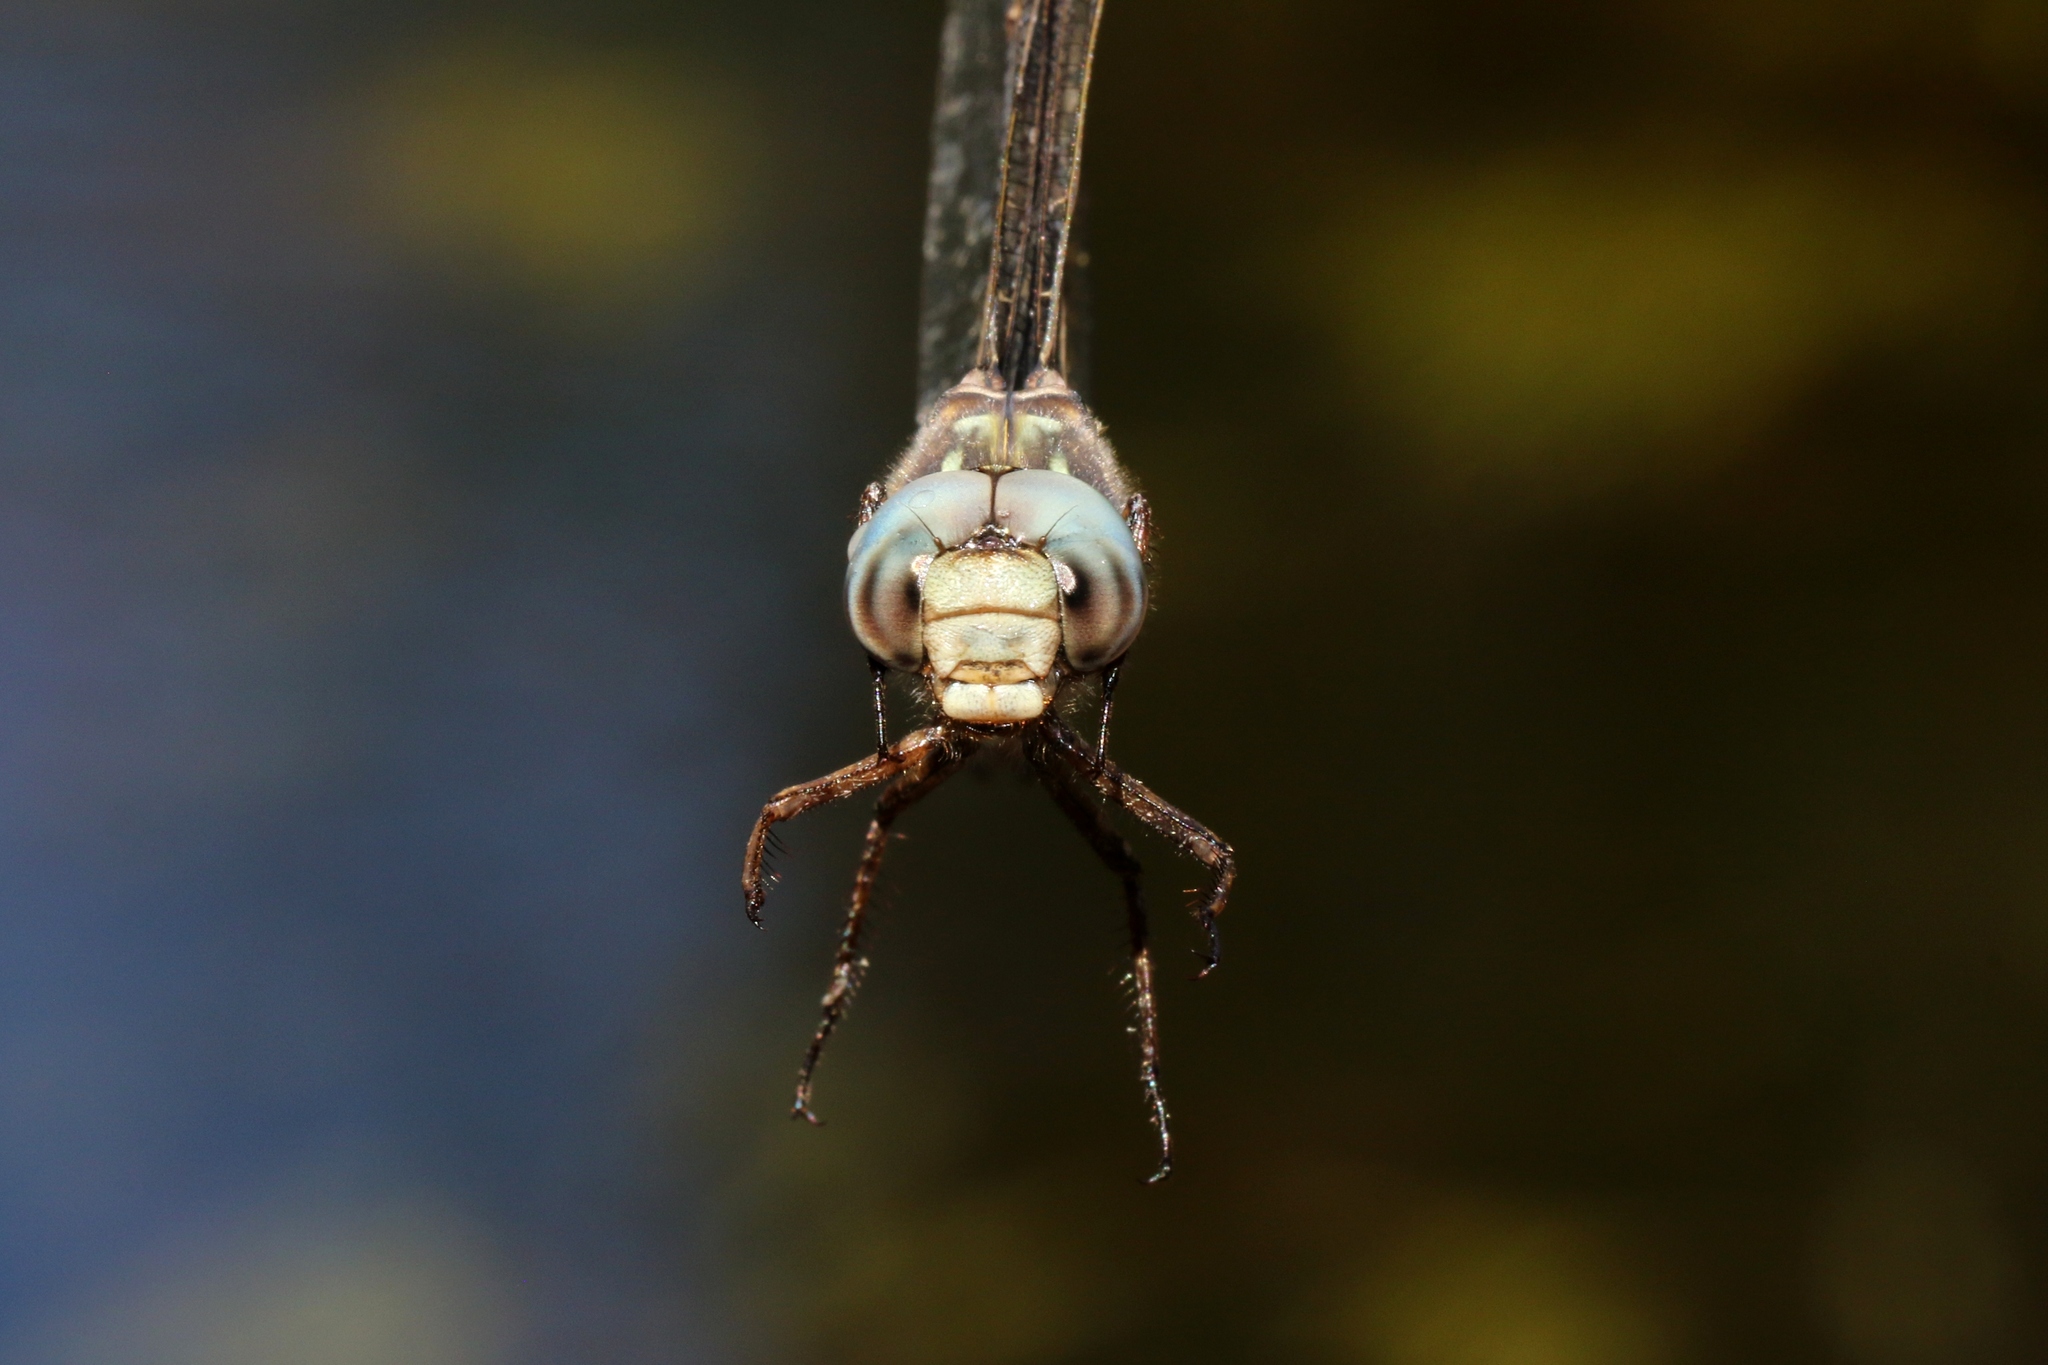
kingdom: Animalia
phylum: Arthropoda
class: Insecta
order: Odonata
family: Aeshnidae
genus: Boyeria
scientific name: Boyeria grafiana
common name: Ocellated darner
